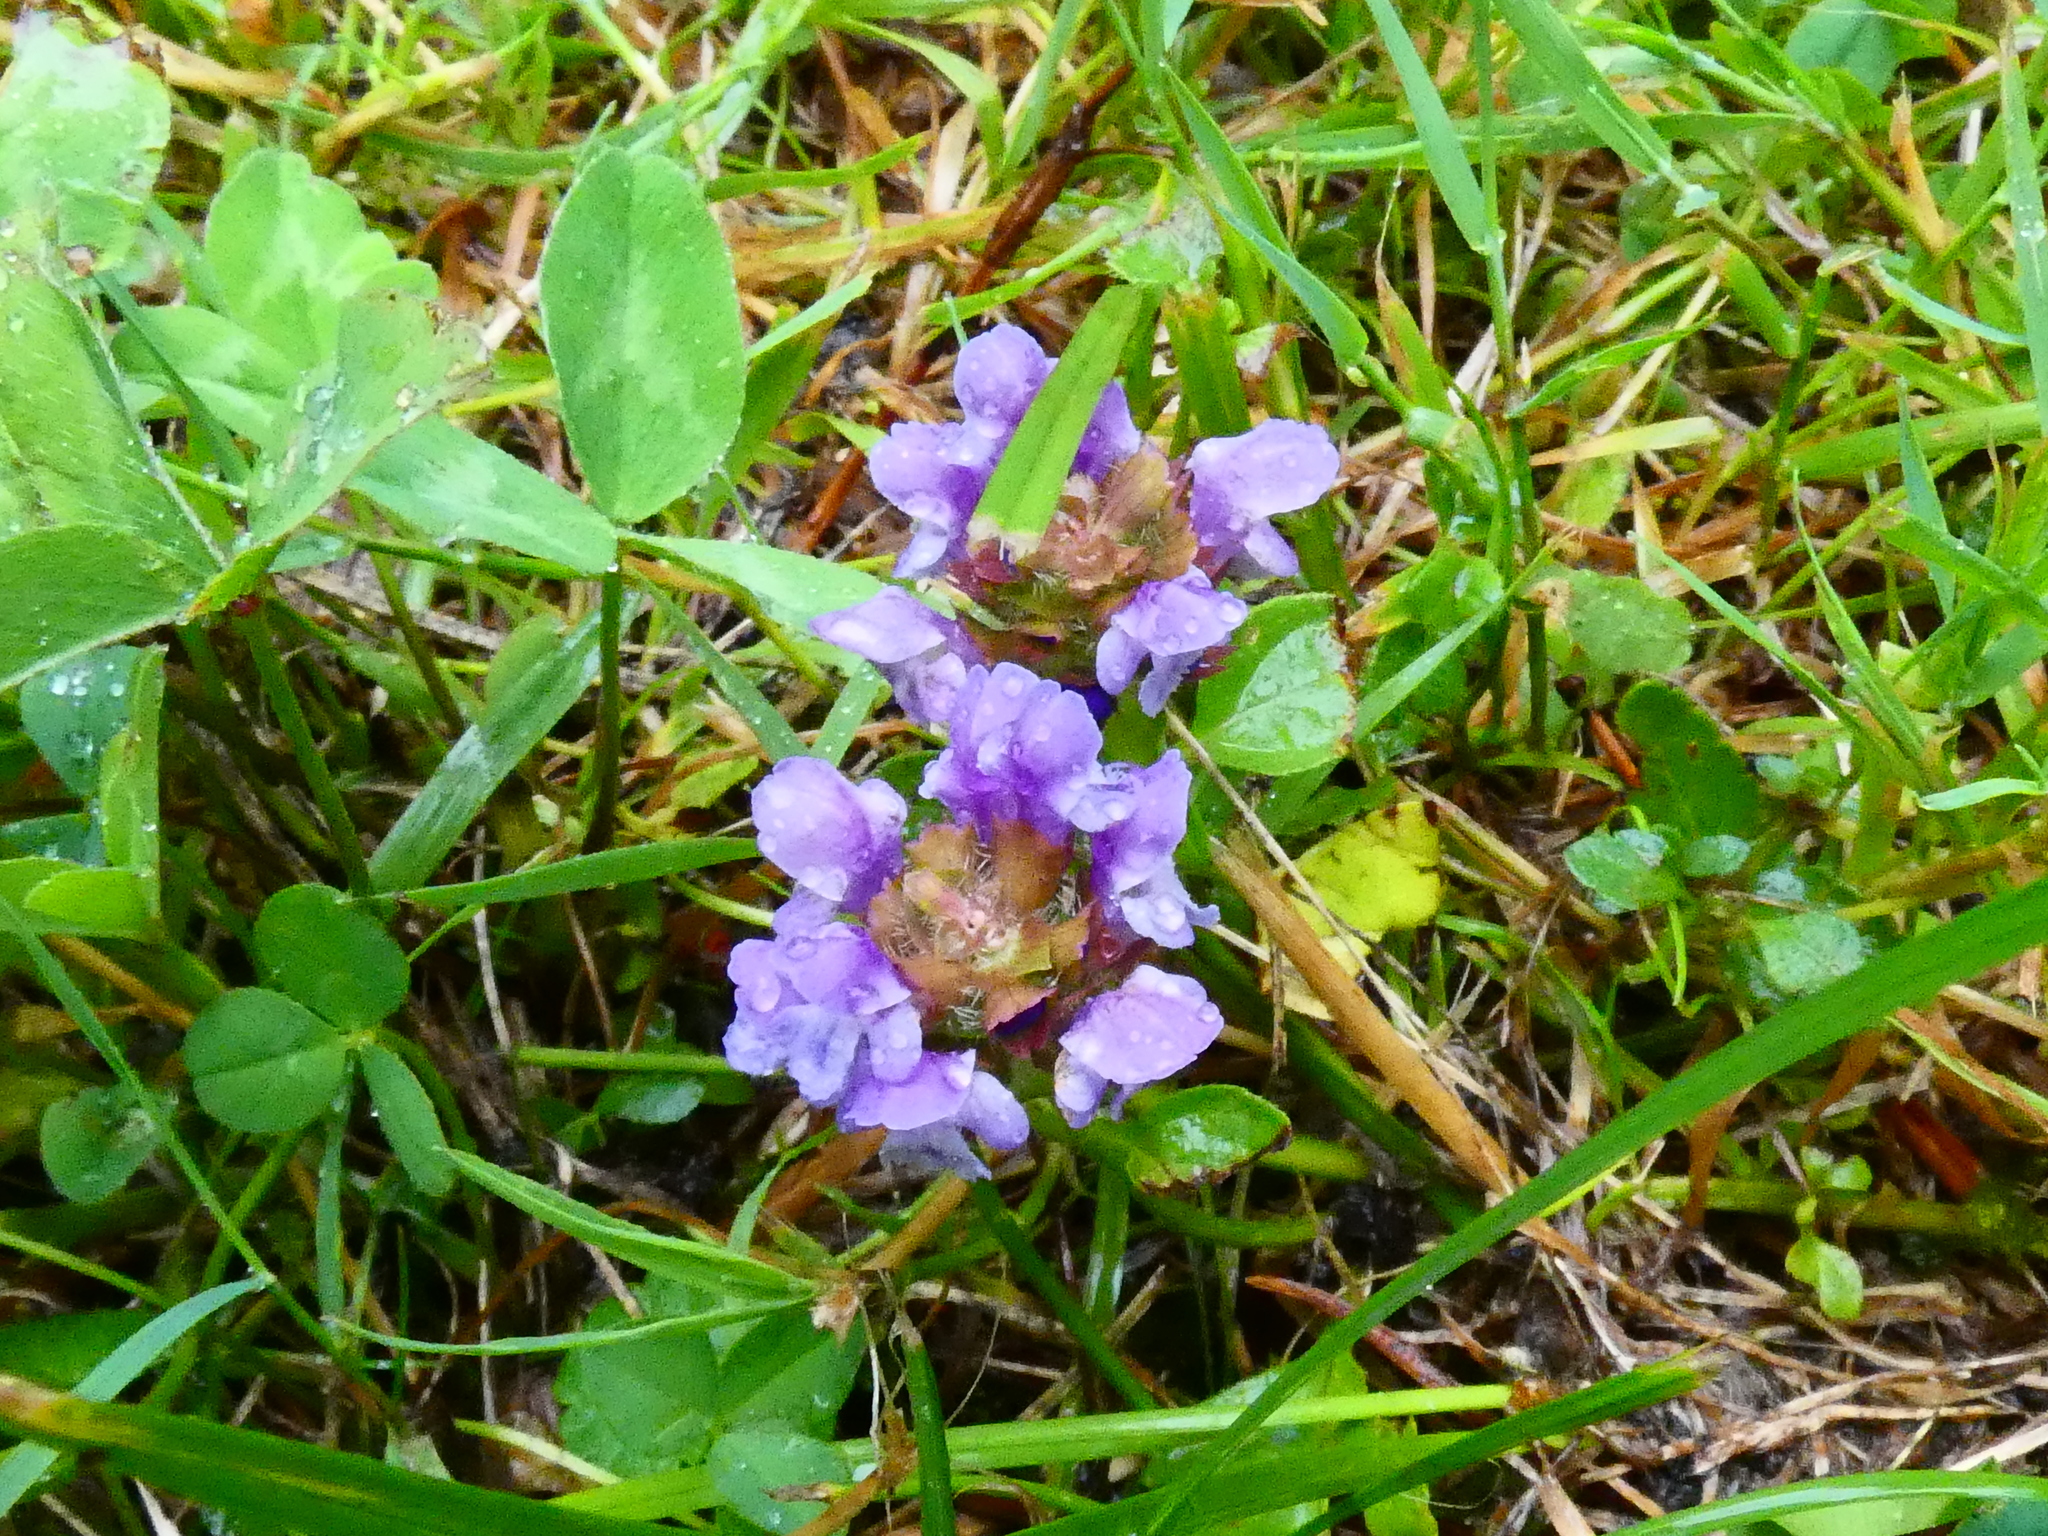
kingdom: Plantae
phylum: Tracheophyta
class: Magnoliopsida
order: Lamiales
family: Lamiaceae
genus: Prunella
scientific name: Prunella vulgaris
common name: Heal-all
